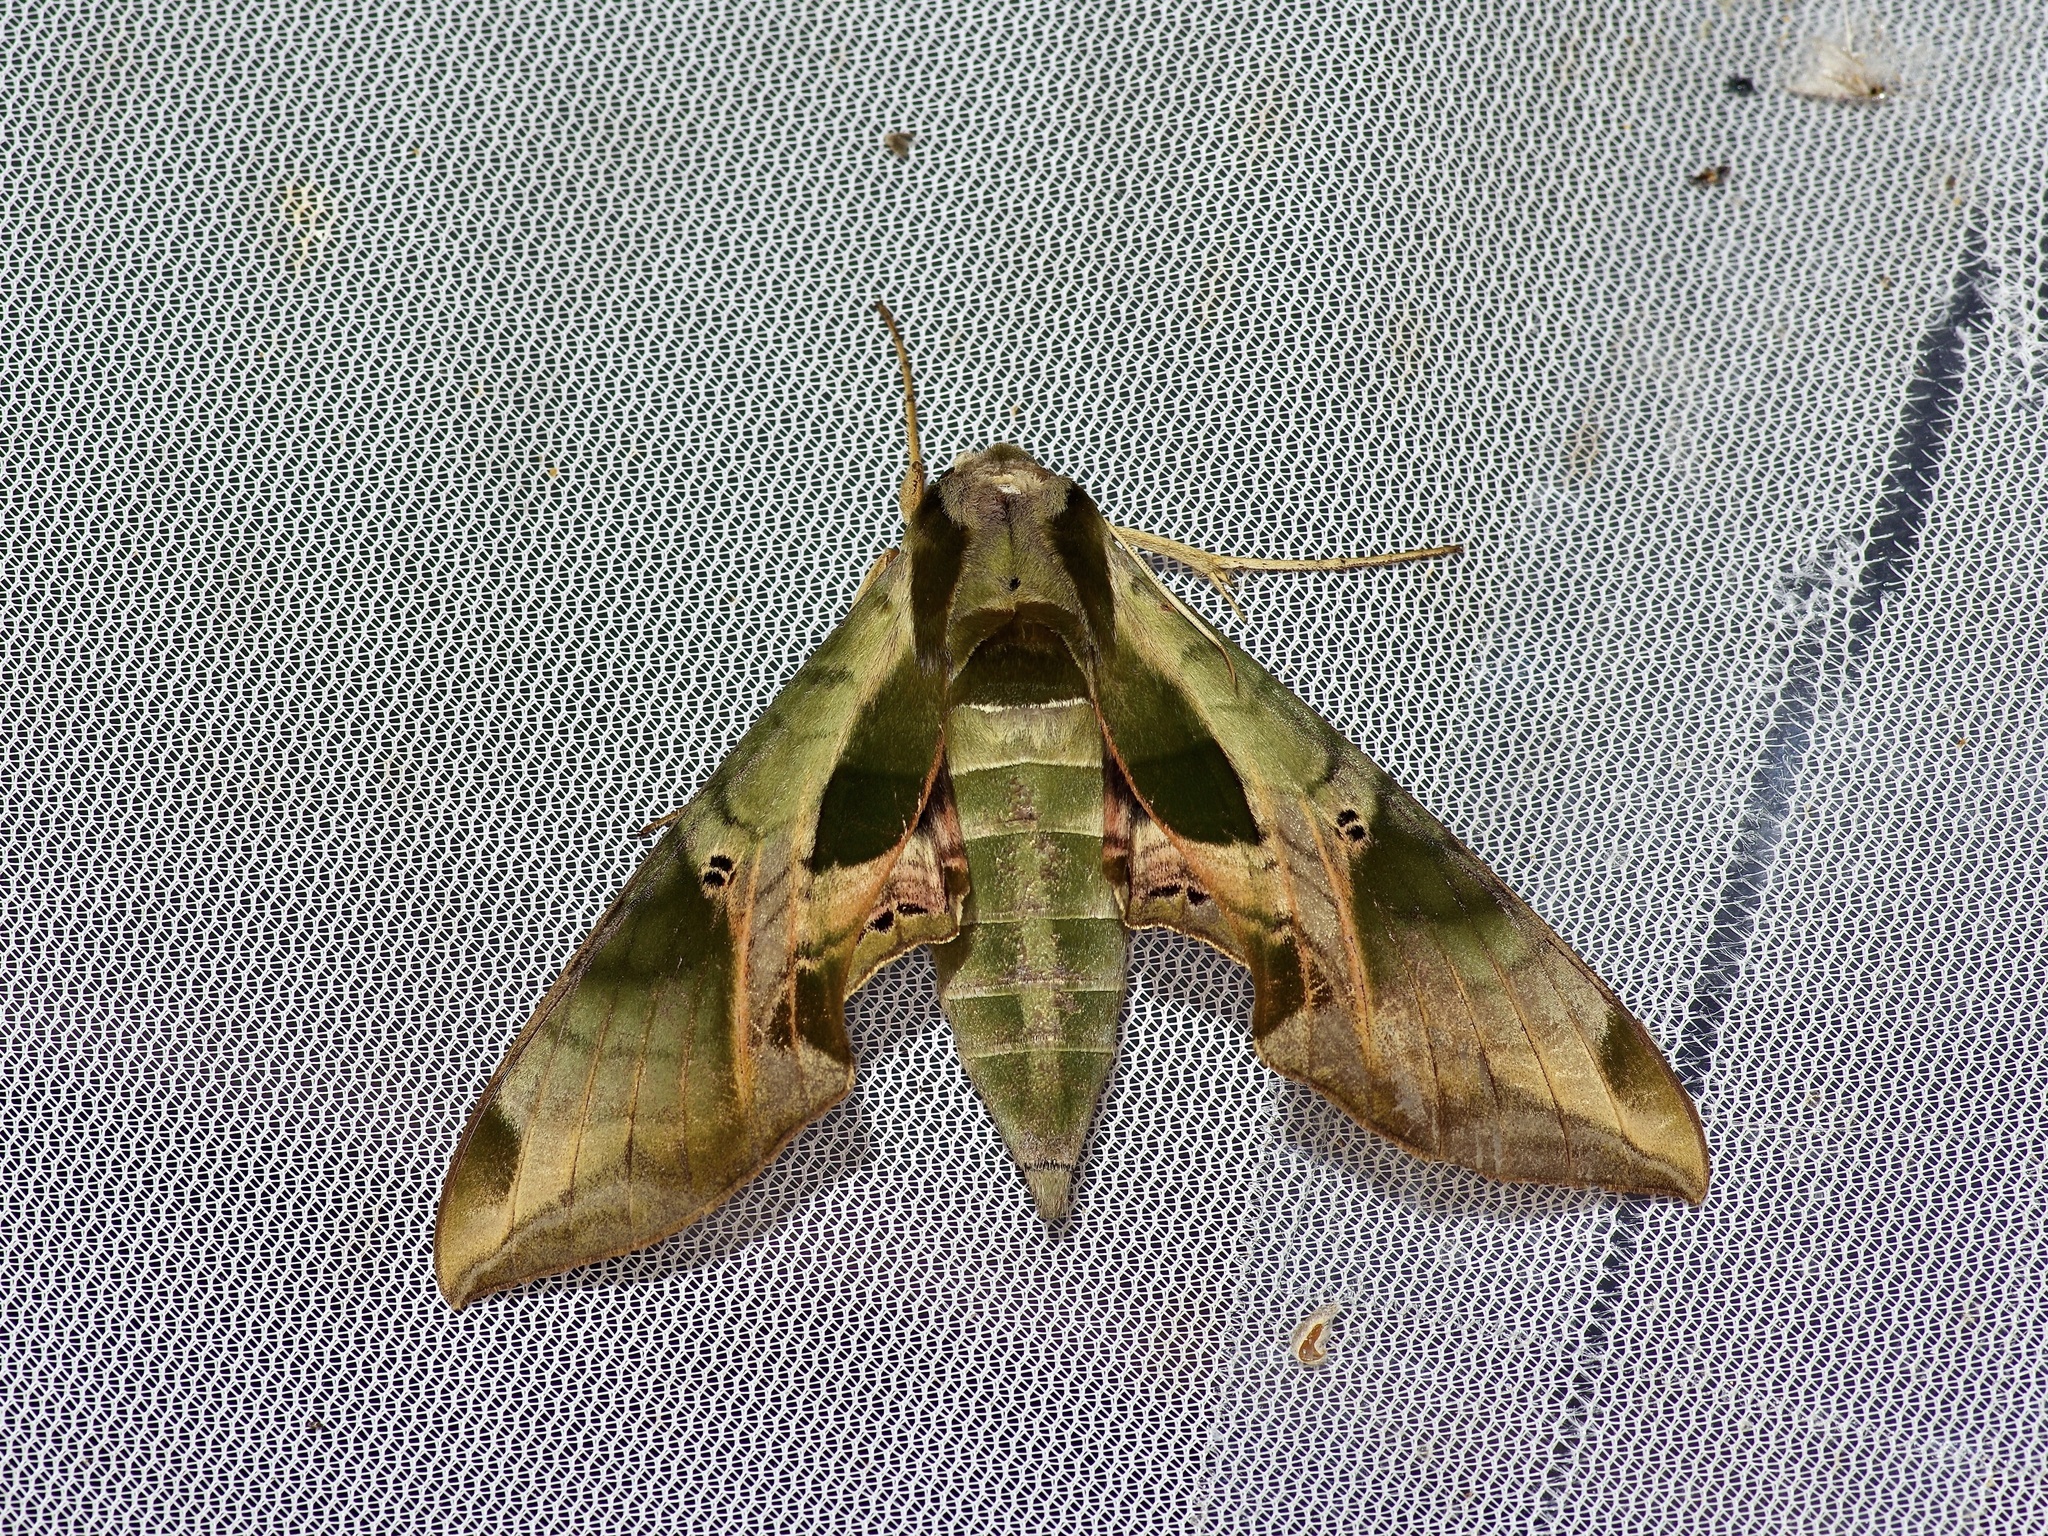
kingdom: Animalia
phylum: Arthropoda
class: Insecta
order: Lepidoptera
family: Sphingidae
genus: Eumorpha
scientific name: Eumorpha pandorus
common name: Pandora sphinx
